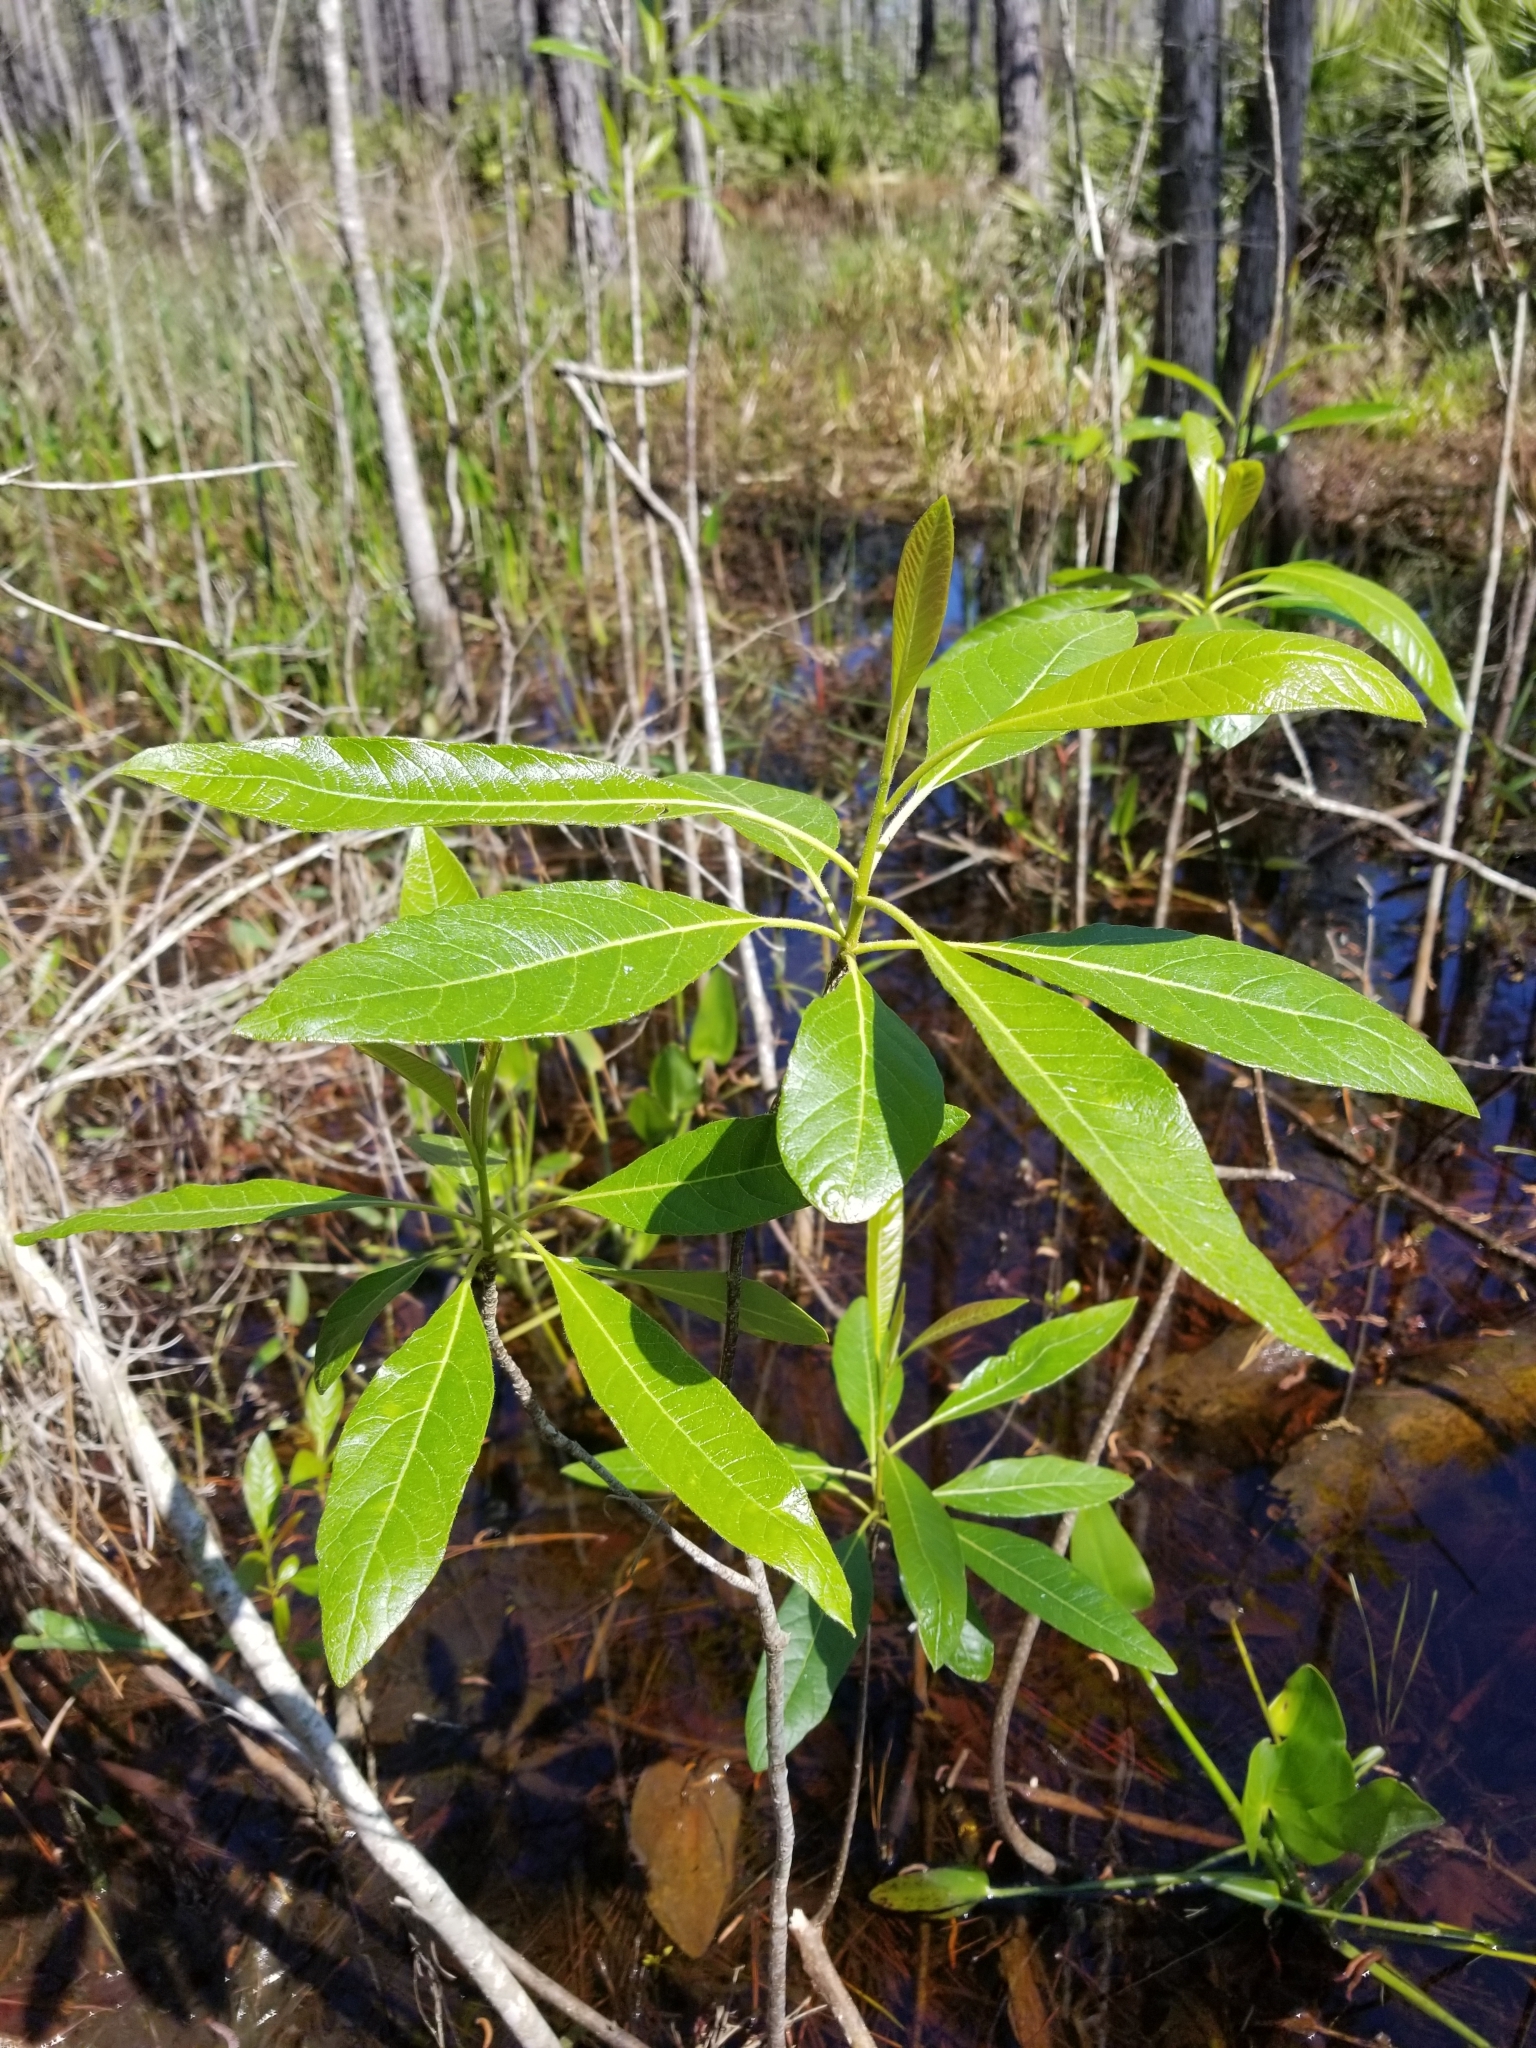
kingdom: Plantae
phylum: Tracheophyta
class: Magnoliopsida
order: Sapindales
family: Simaroubaceae
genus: Leitneria
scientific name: Leitneria floridana
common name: Corkwood
